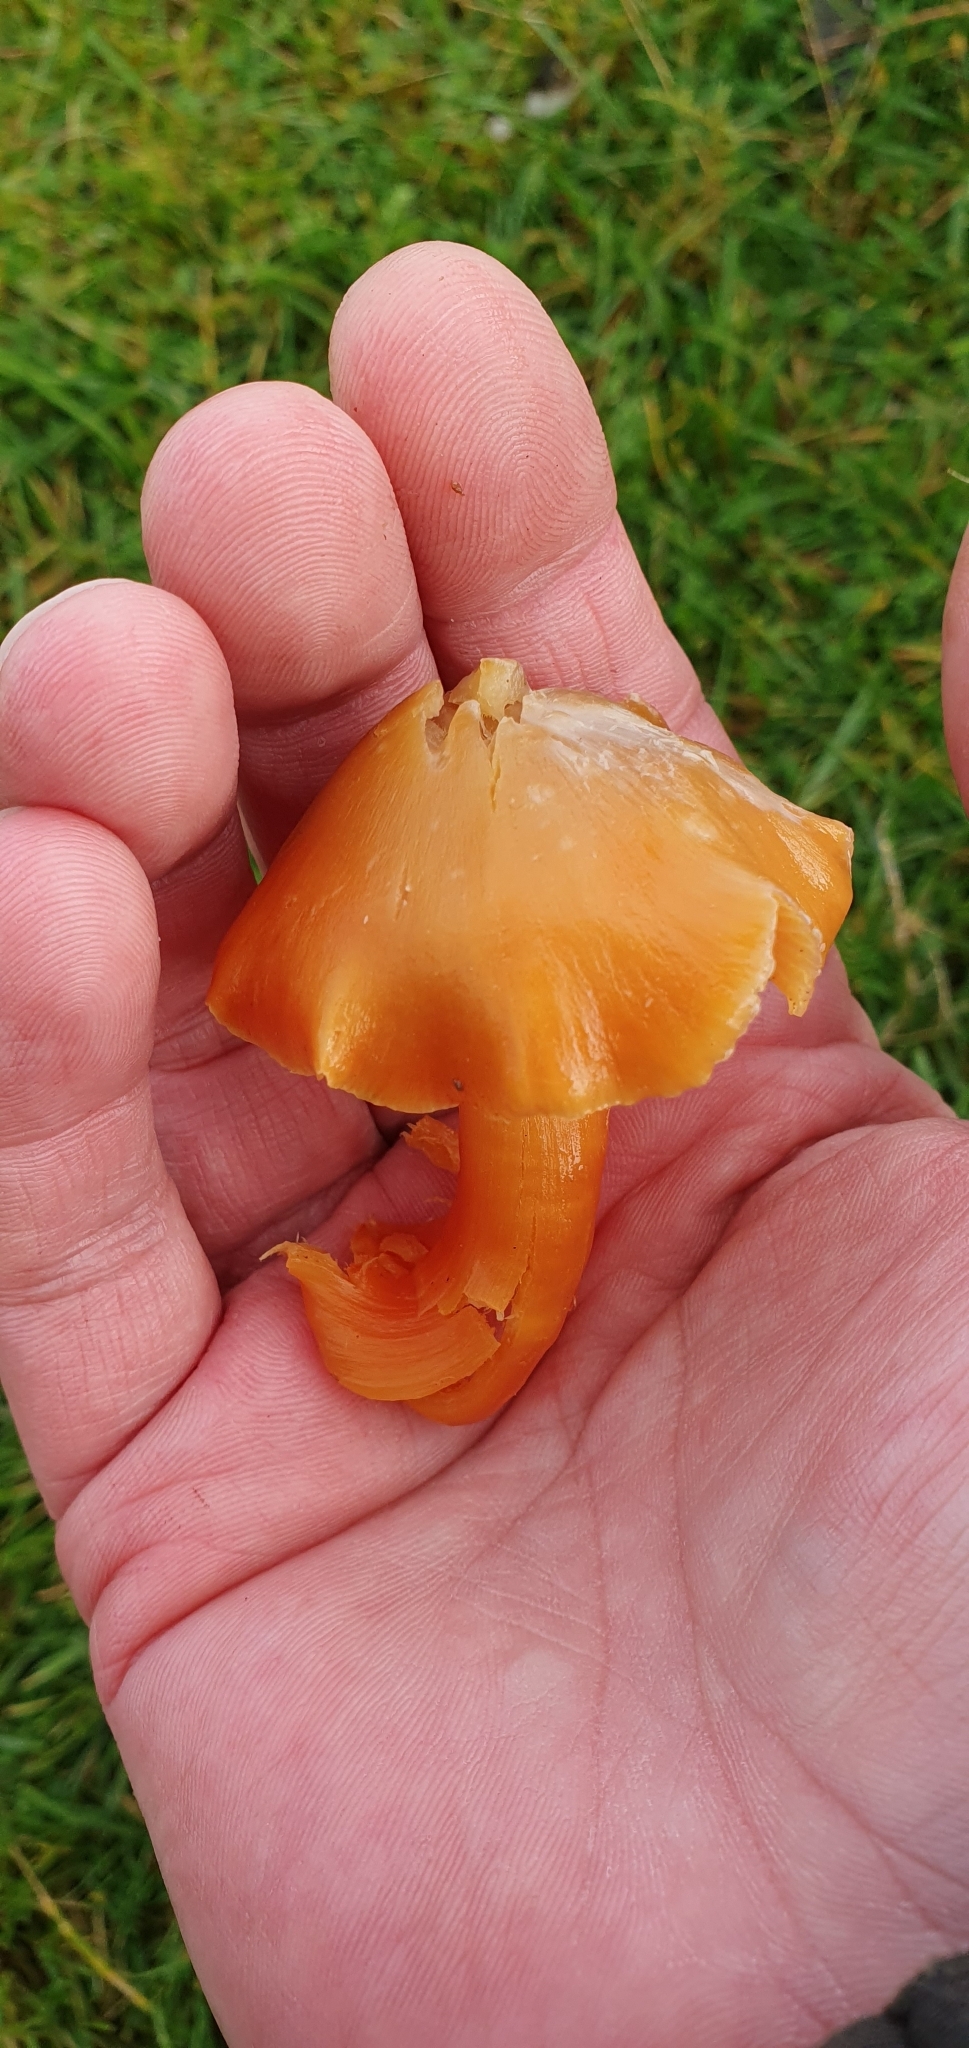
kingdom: Fungi
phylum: Basidiomycota
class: Agaricomycetes
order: Agaricales
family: Hygrophoraceae
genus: Hygrocybe
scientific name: Hygrocybe quieta
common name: Oily waxcap
